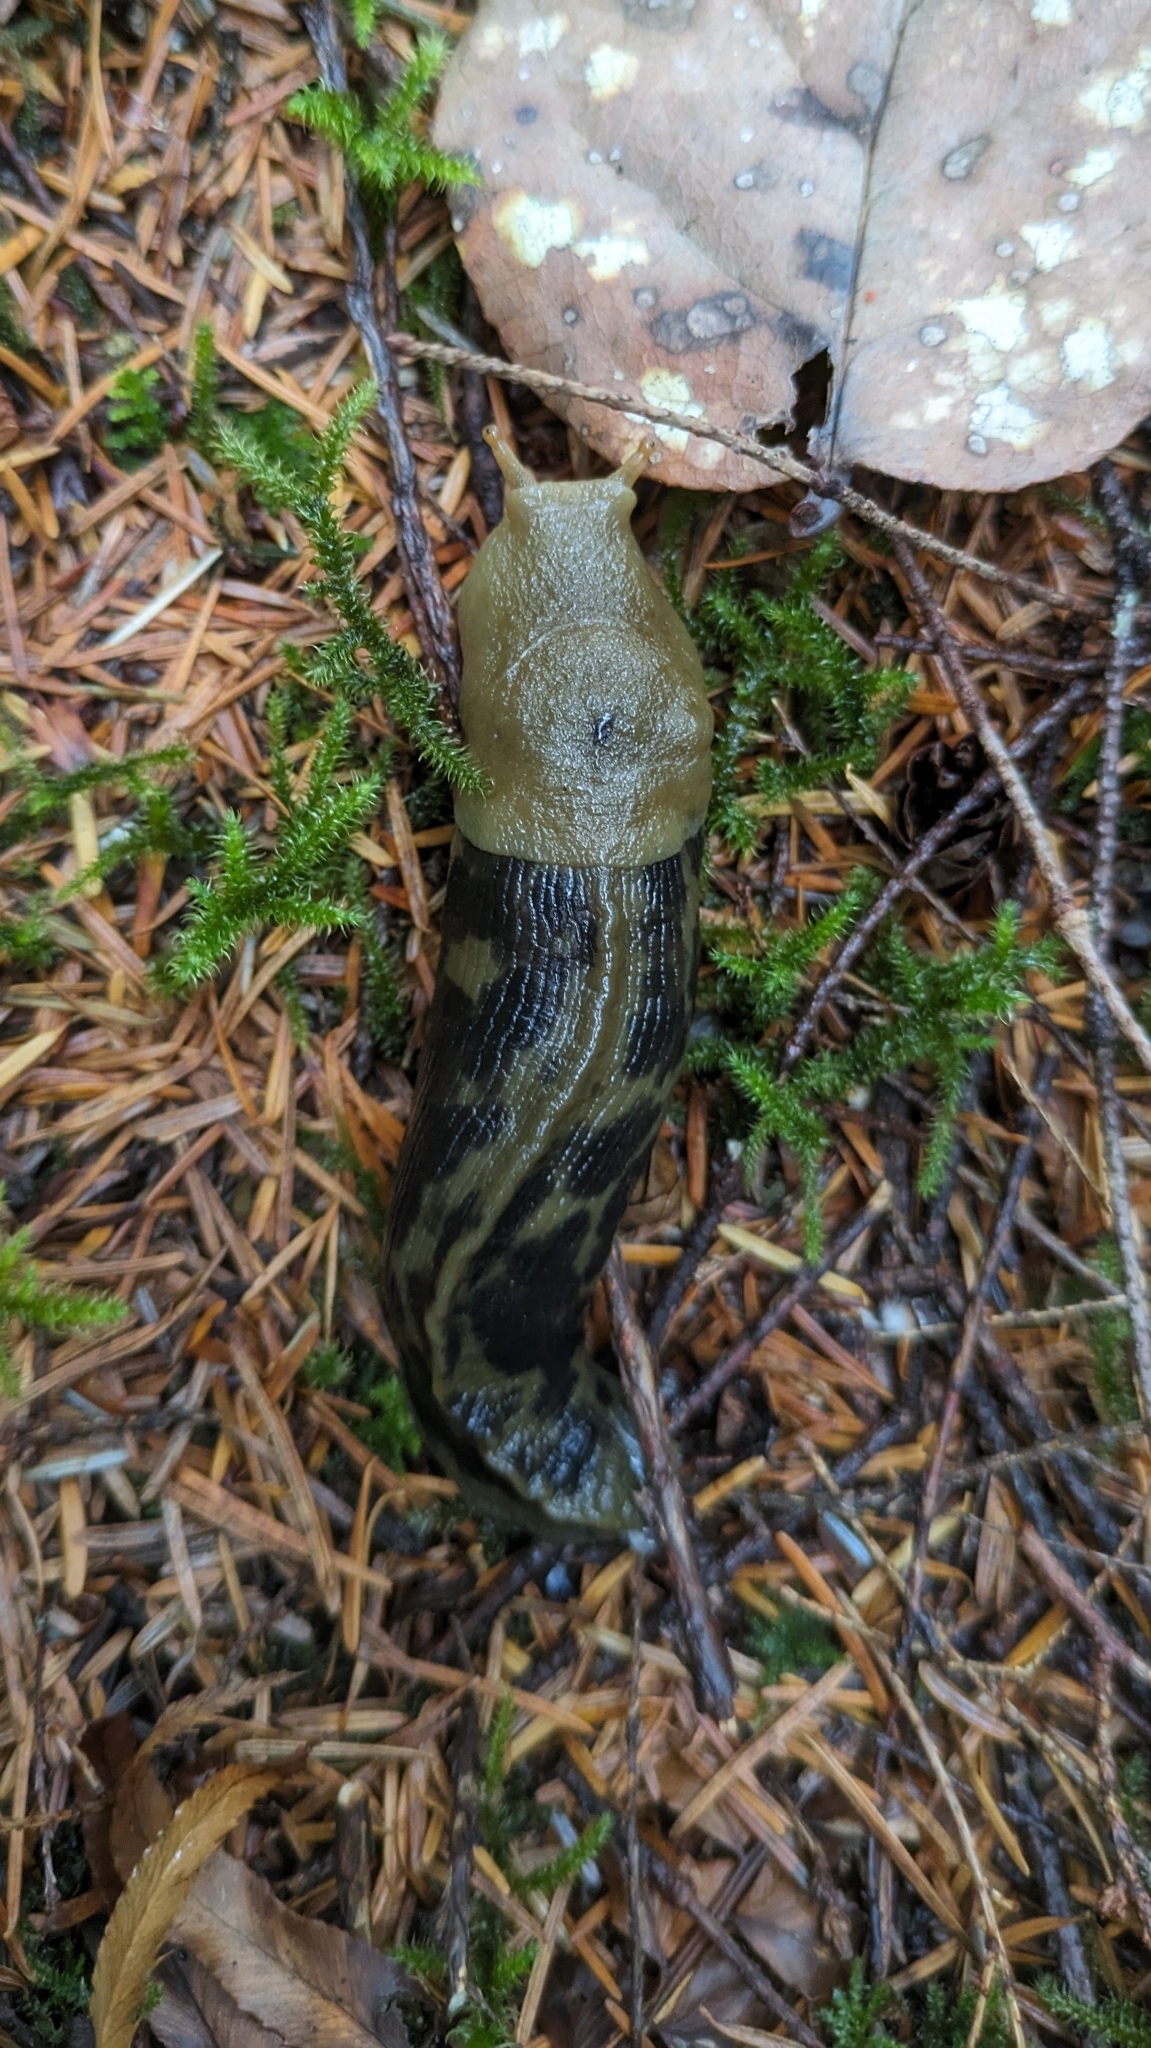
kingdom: Animalia
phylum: Mollusca
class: Gastropoda
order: Stylommatophora
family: Ariolimacidae
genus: Ariolimax
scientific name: Ariolimax columbianus
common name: Pacific banana slug
